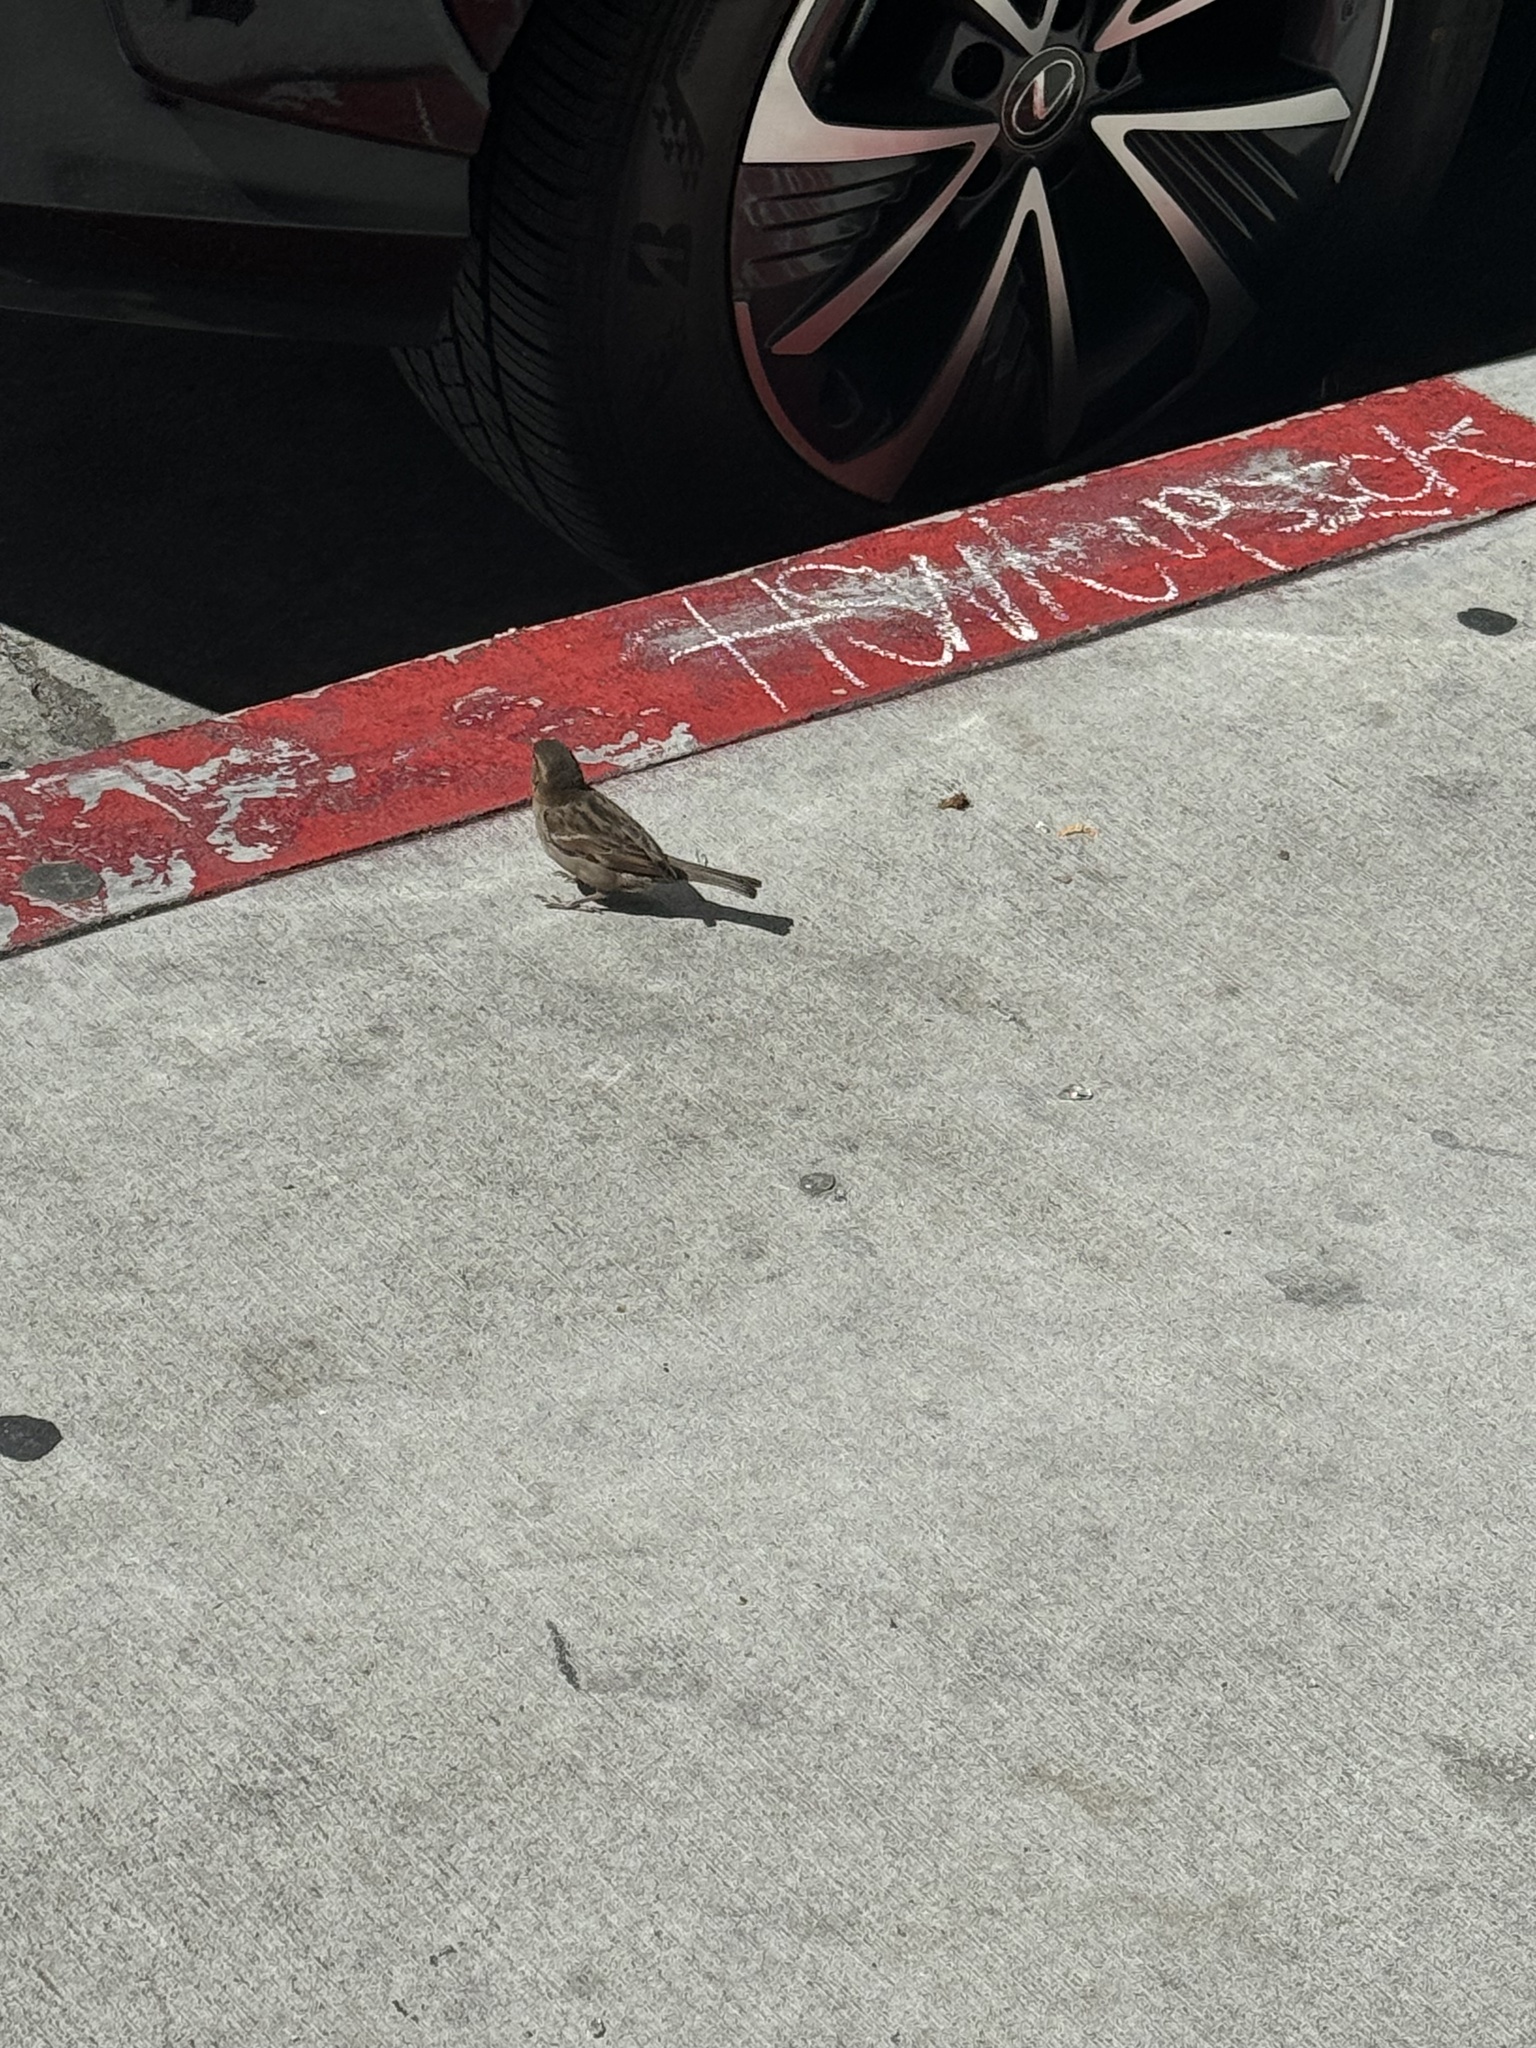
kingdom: Animalia
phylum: Chordata
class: Aves
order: Passeriformes
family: Passeridae
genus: Passer
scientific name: Passer domesticus
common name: House sparrow
